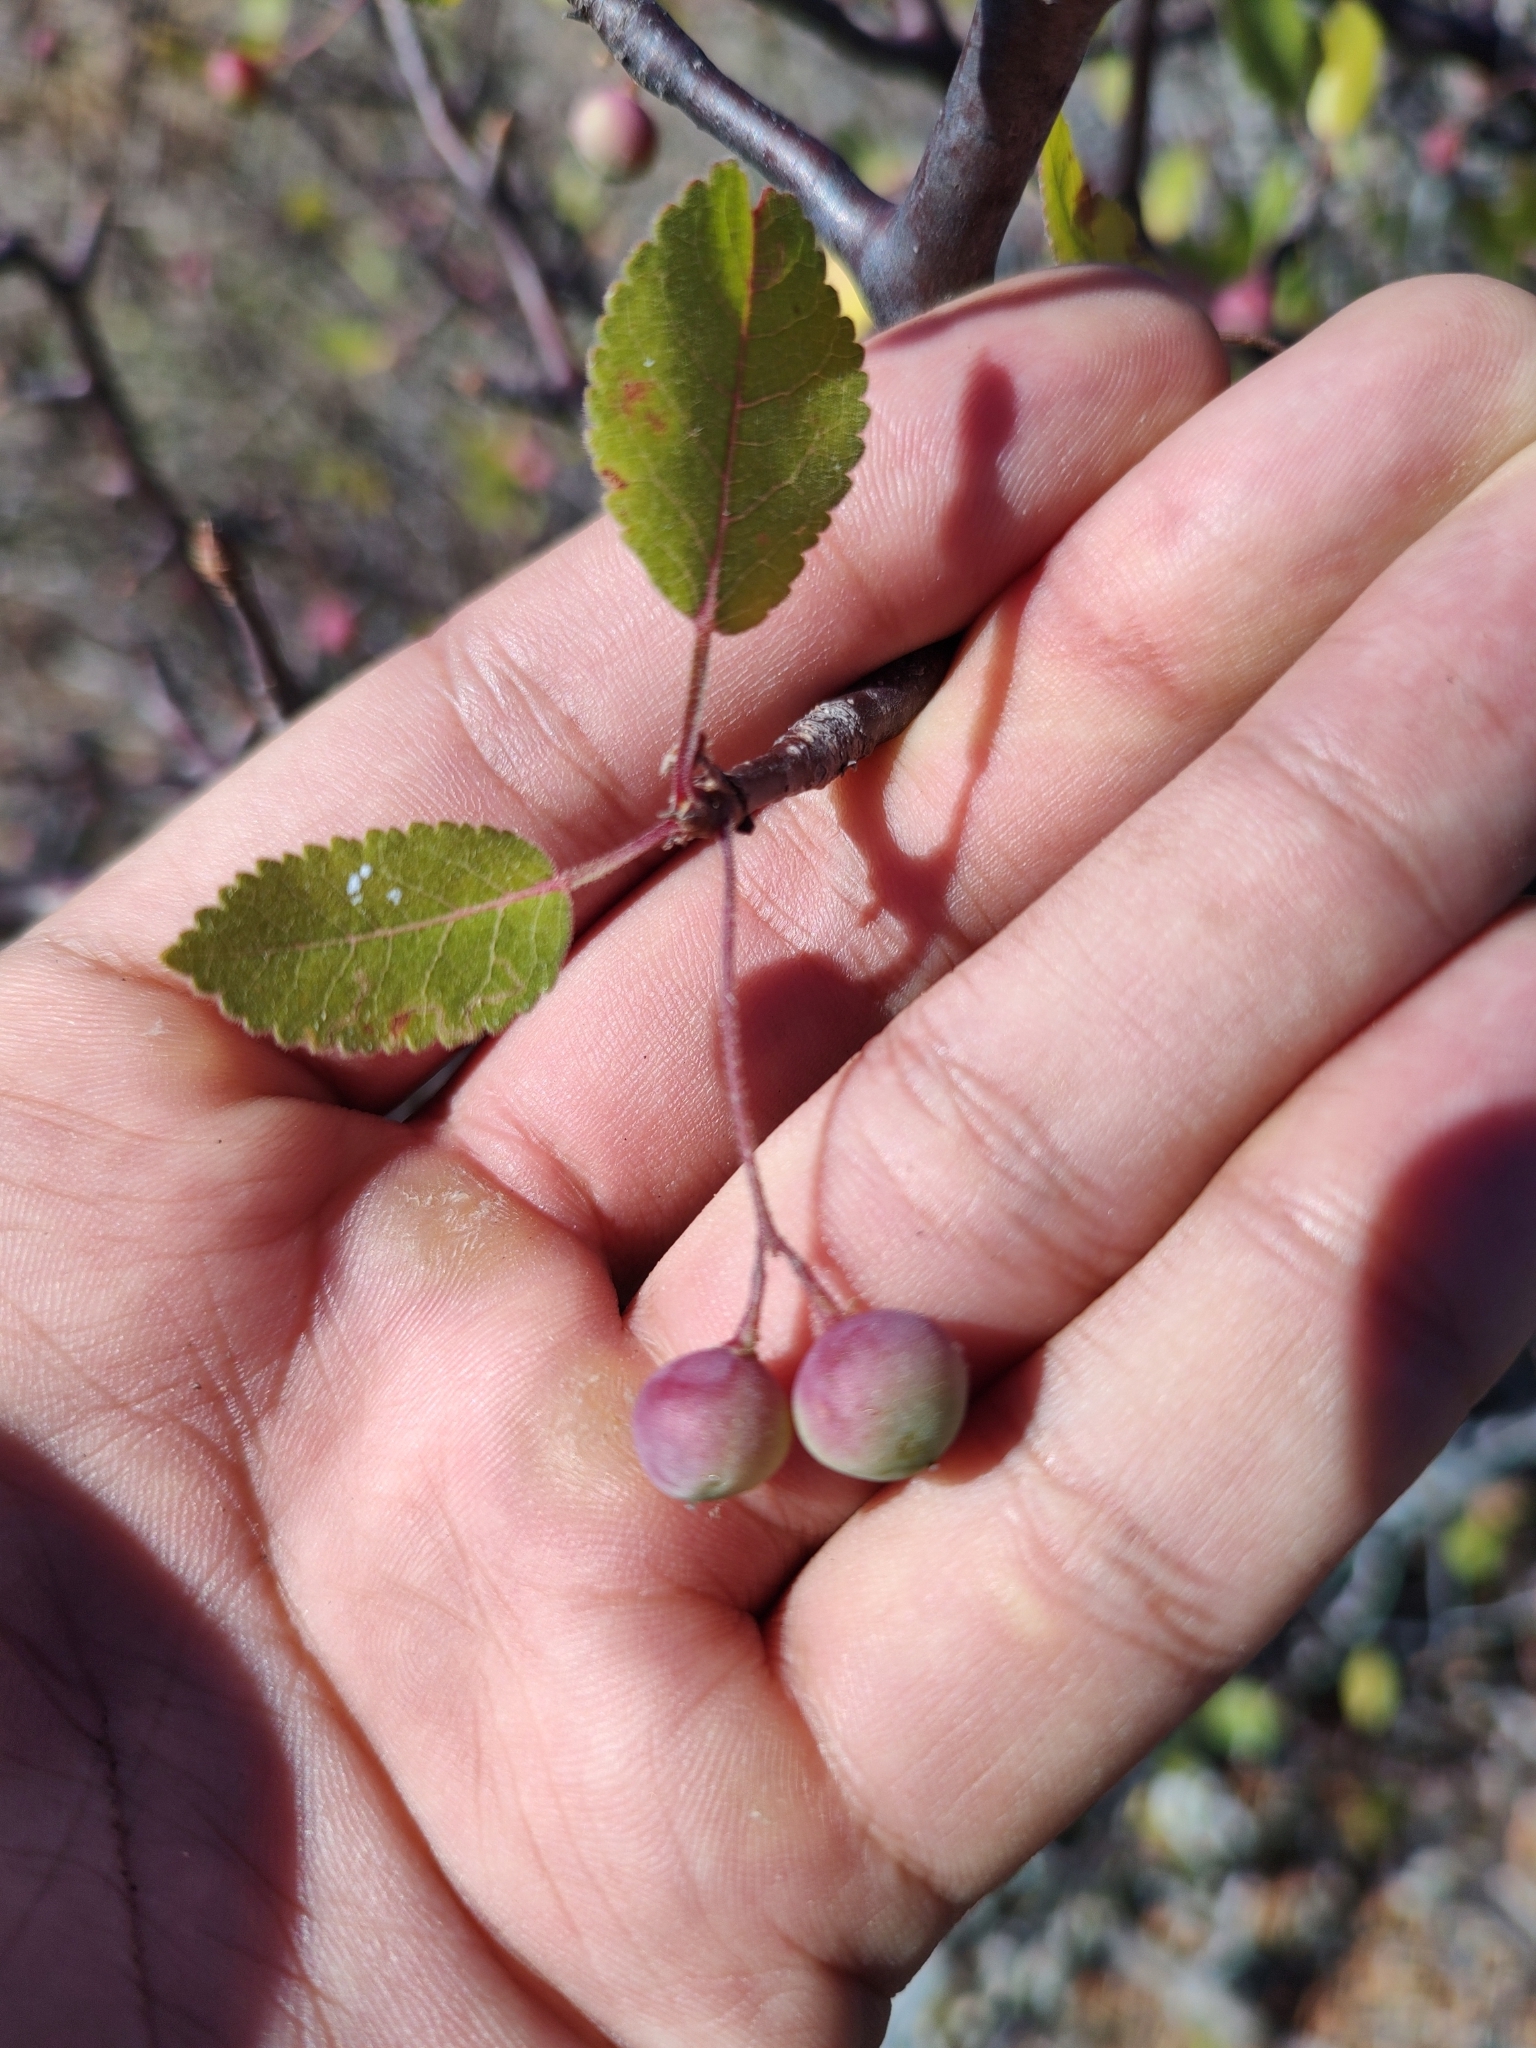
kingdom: Plantae
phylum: Tracheophyta
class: Magnoliopsida
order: Sapindales
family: Burseraceae
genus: Bursera
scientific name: Bursera epinnata
